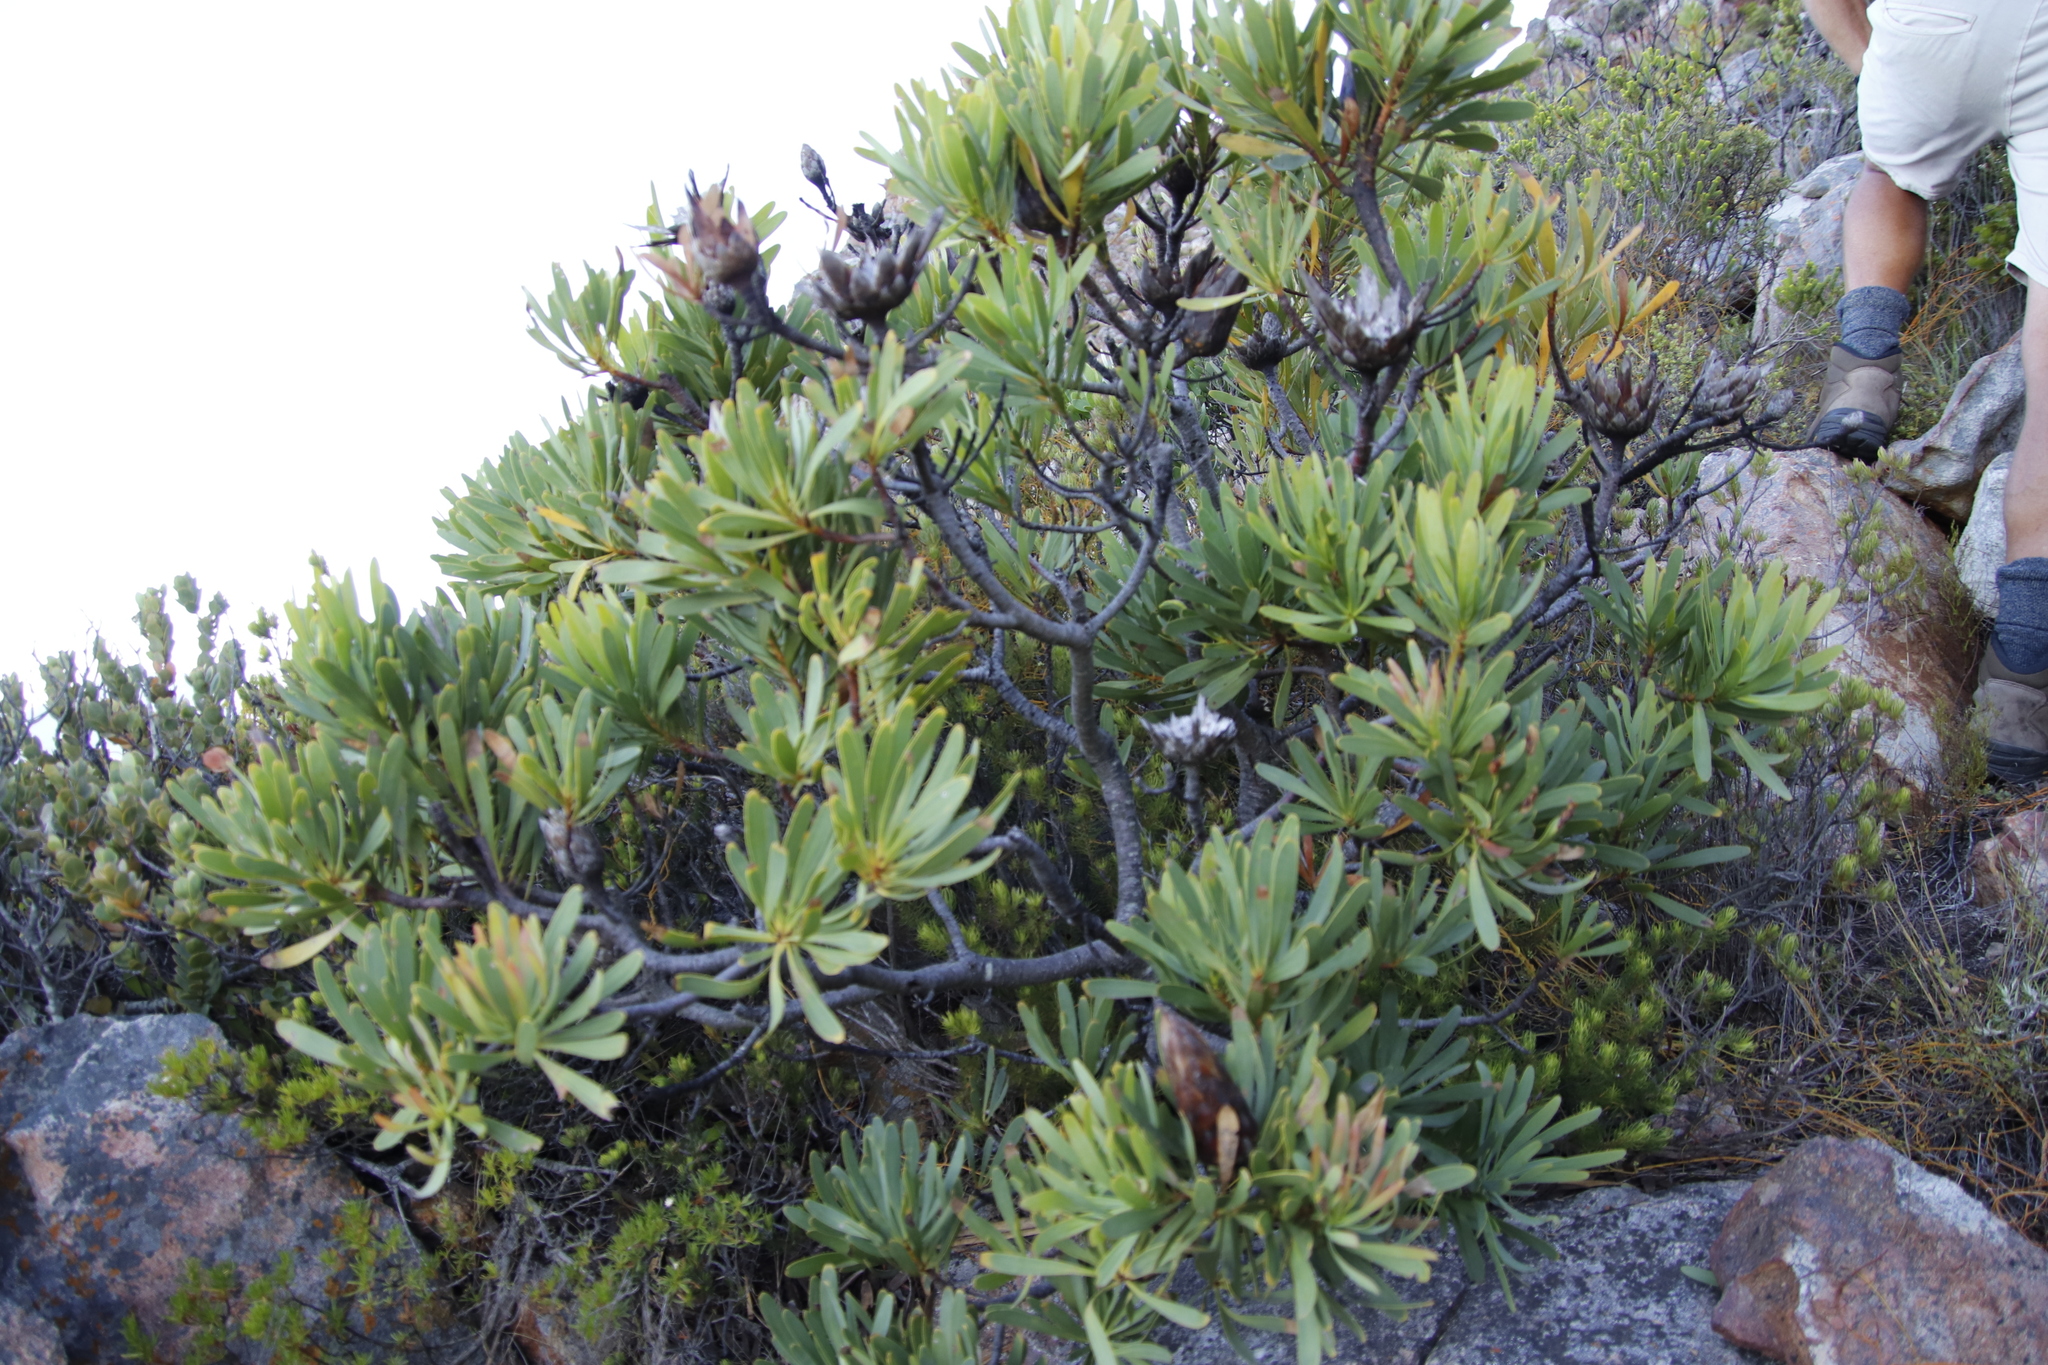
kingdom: Plantae
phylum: Tracheophyta
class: Magnoliopsida
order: Proteales
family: Proteaceae
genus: Protea
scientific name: Protea repens
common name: Sugarbush
